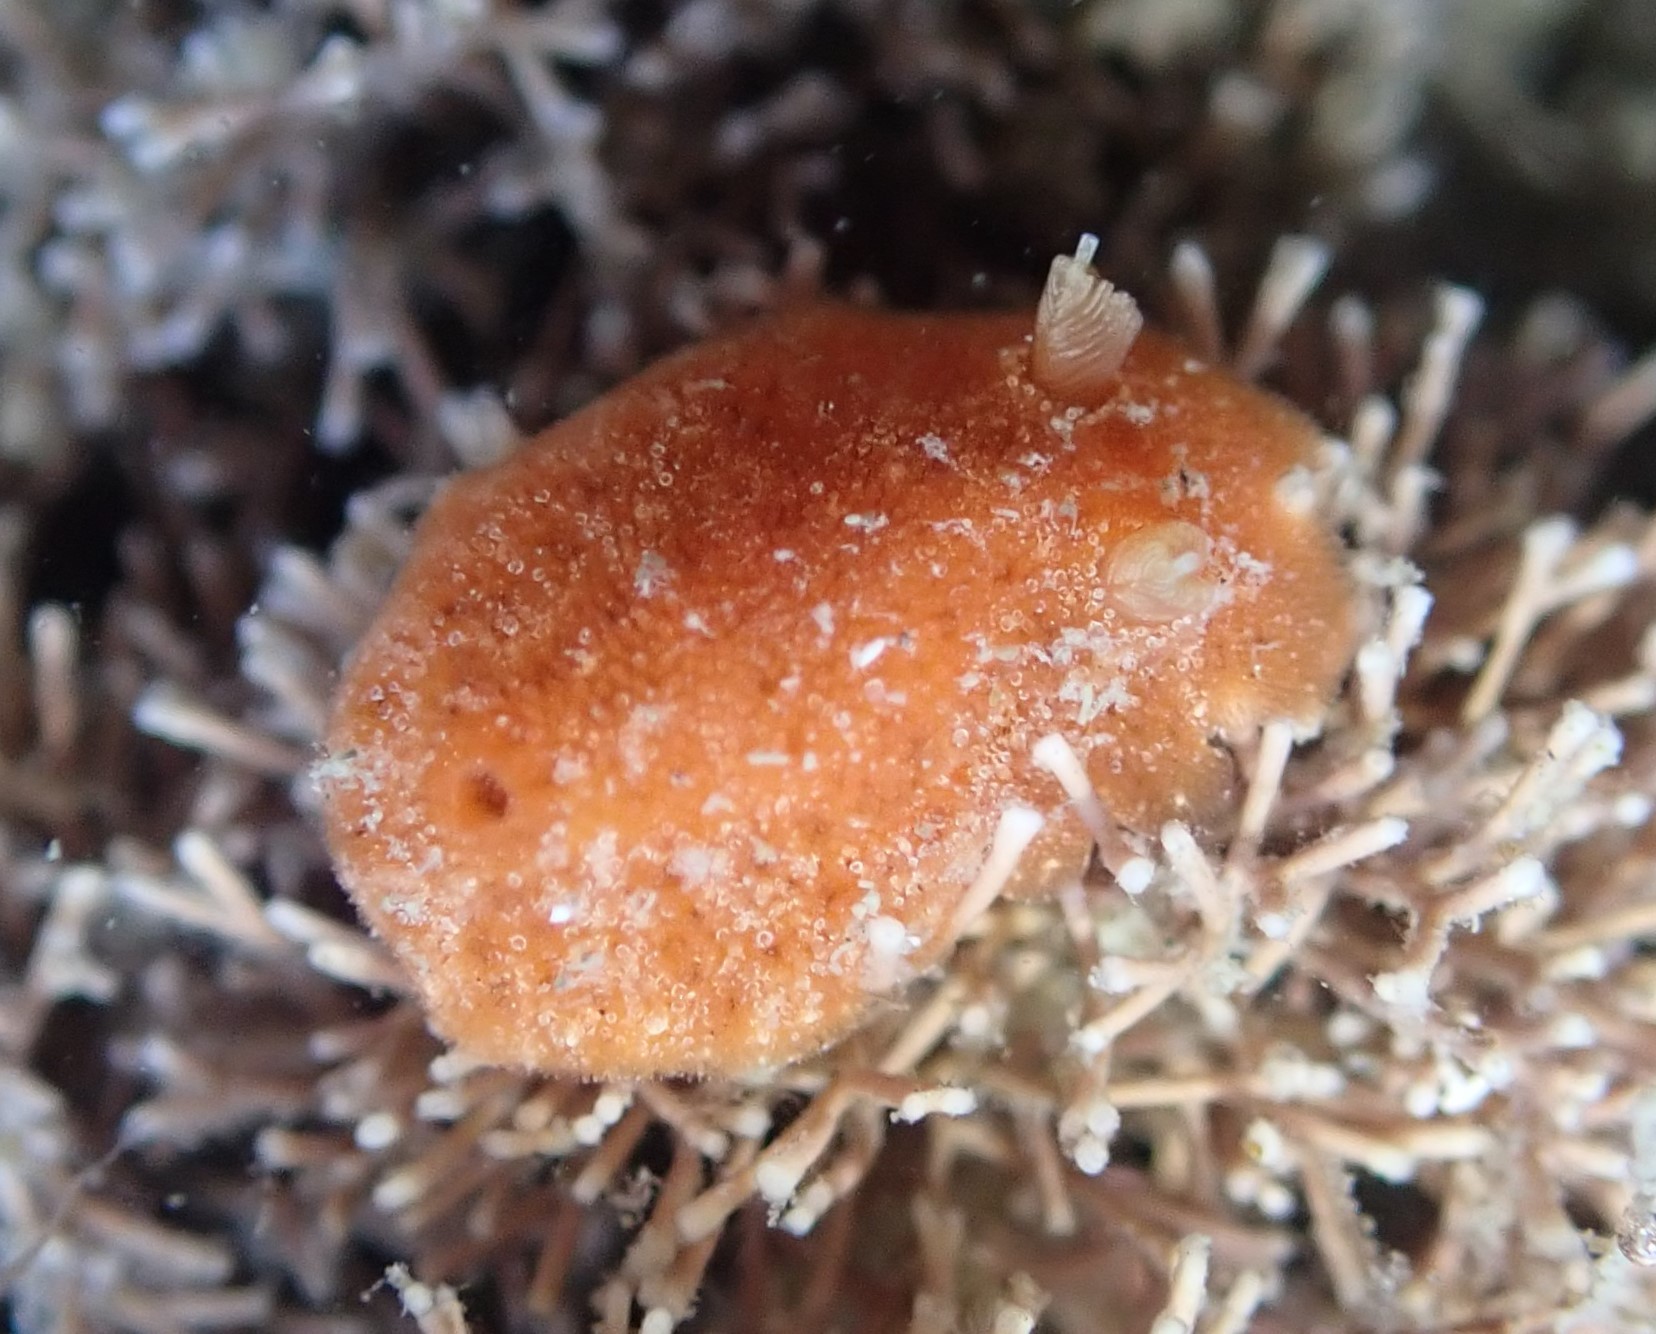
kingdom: Animalia
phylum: Mollusca
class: Gastropoda
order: Nudibranchia
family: Discodorididae
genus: Rostanga
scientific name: Rostanga muscula
